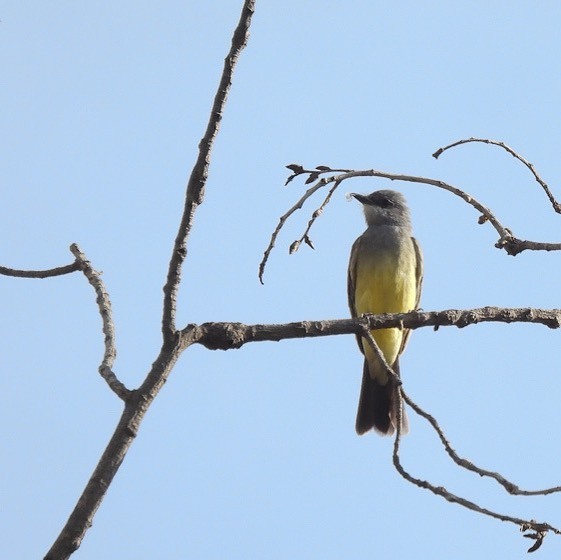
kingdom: Animalia
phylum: Chordata
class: Aves
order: Passeriformes
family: Tyrannidae
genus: Tyrannus
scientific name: Tyrannus vociferans
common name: Cassin's kingbird
